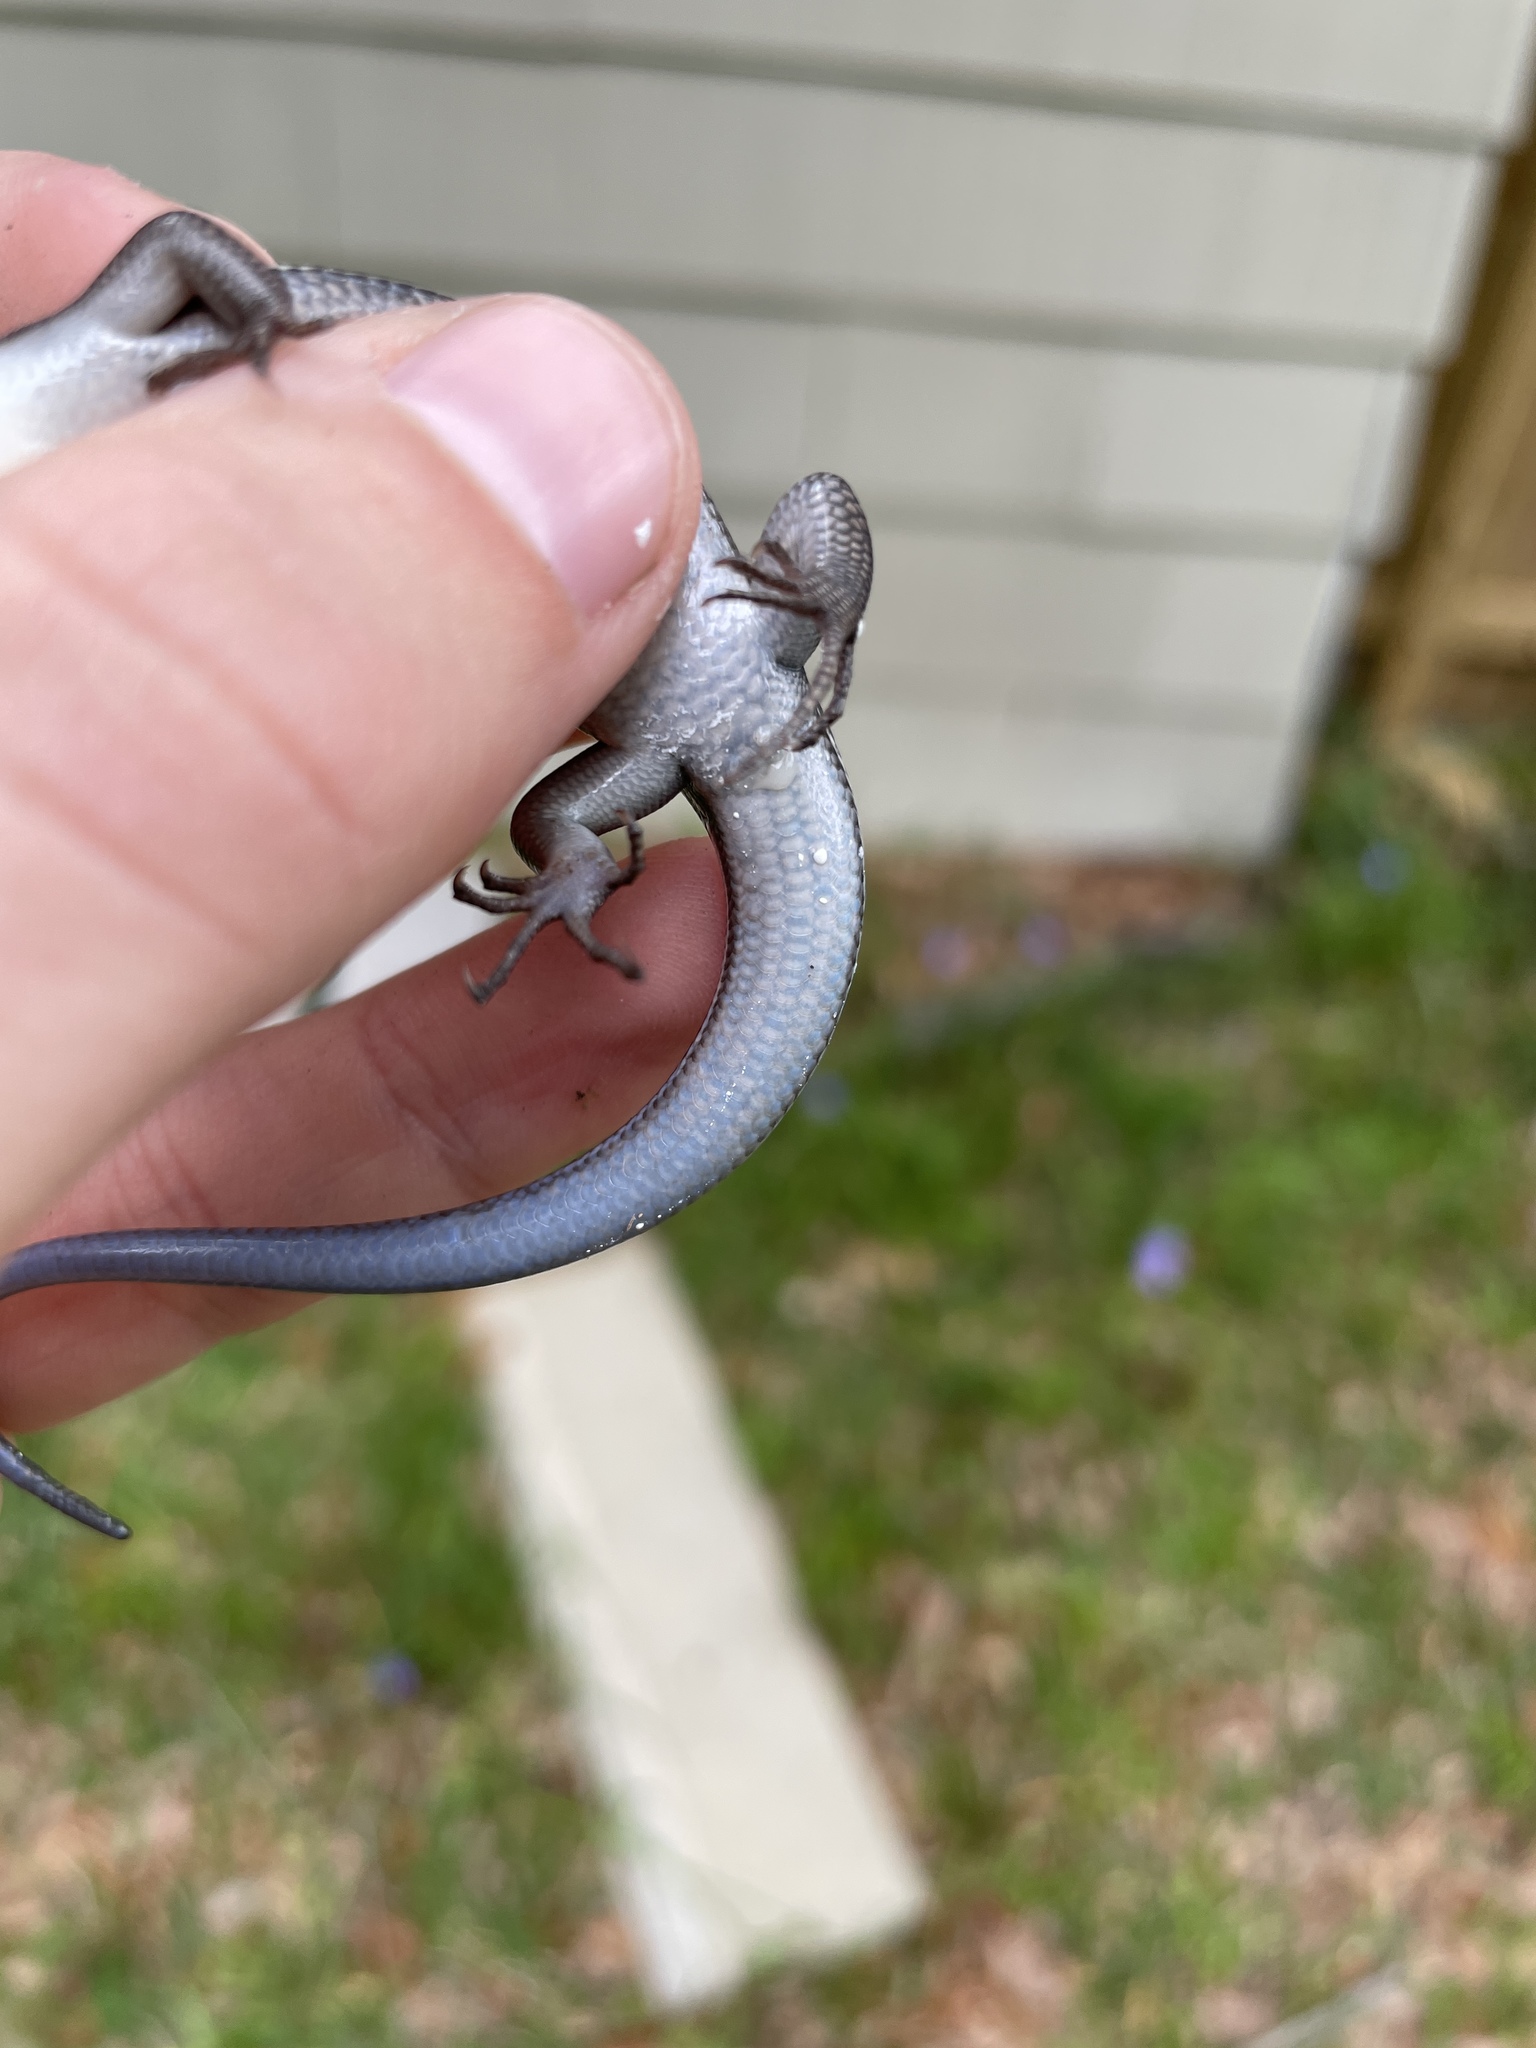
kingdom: Animalia
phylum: Chordata
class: Squamata
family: Scincidae
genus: Plestiodon
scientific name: Plestiodon inexpectatus
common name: Southeastern five-lined skink
